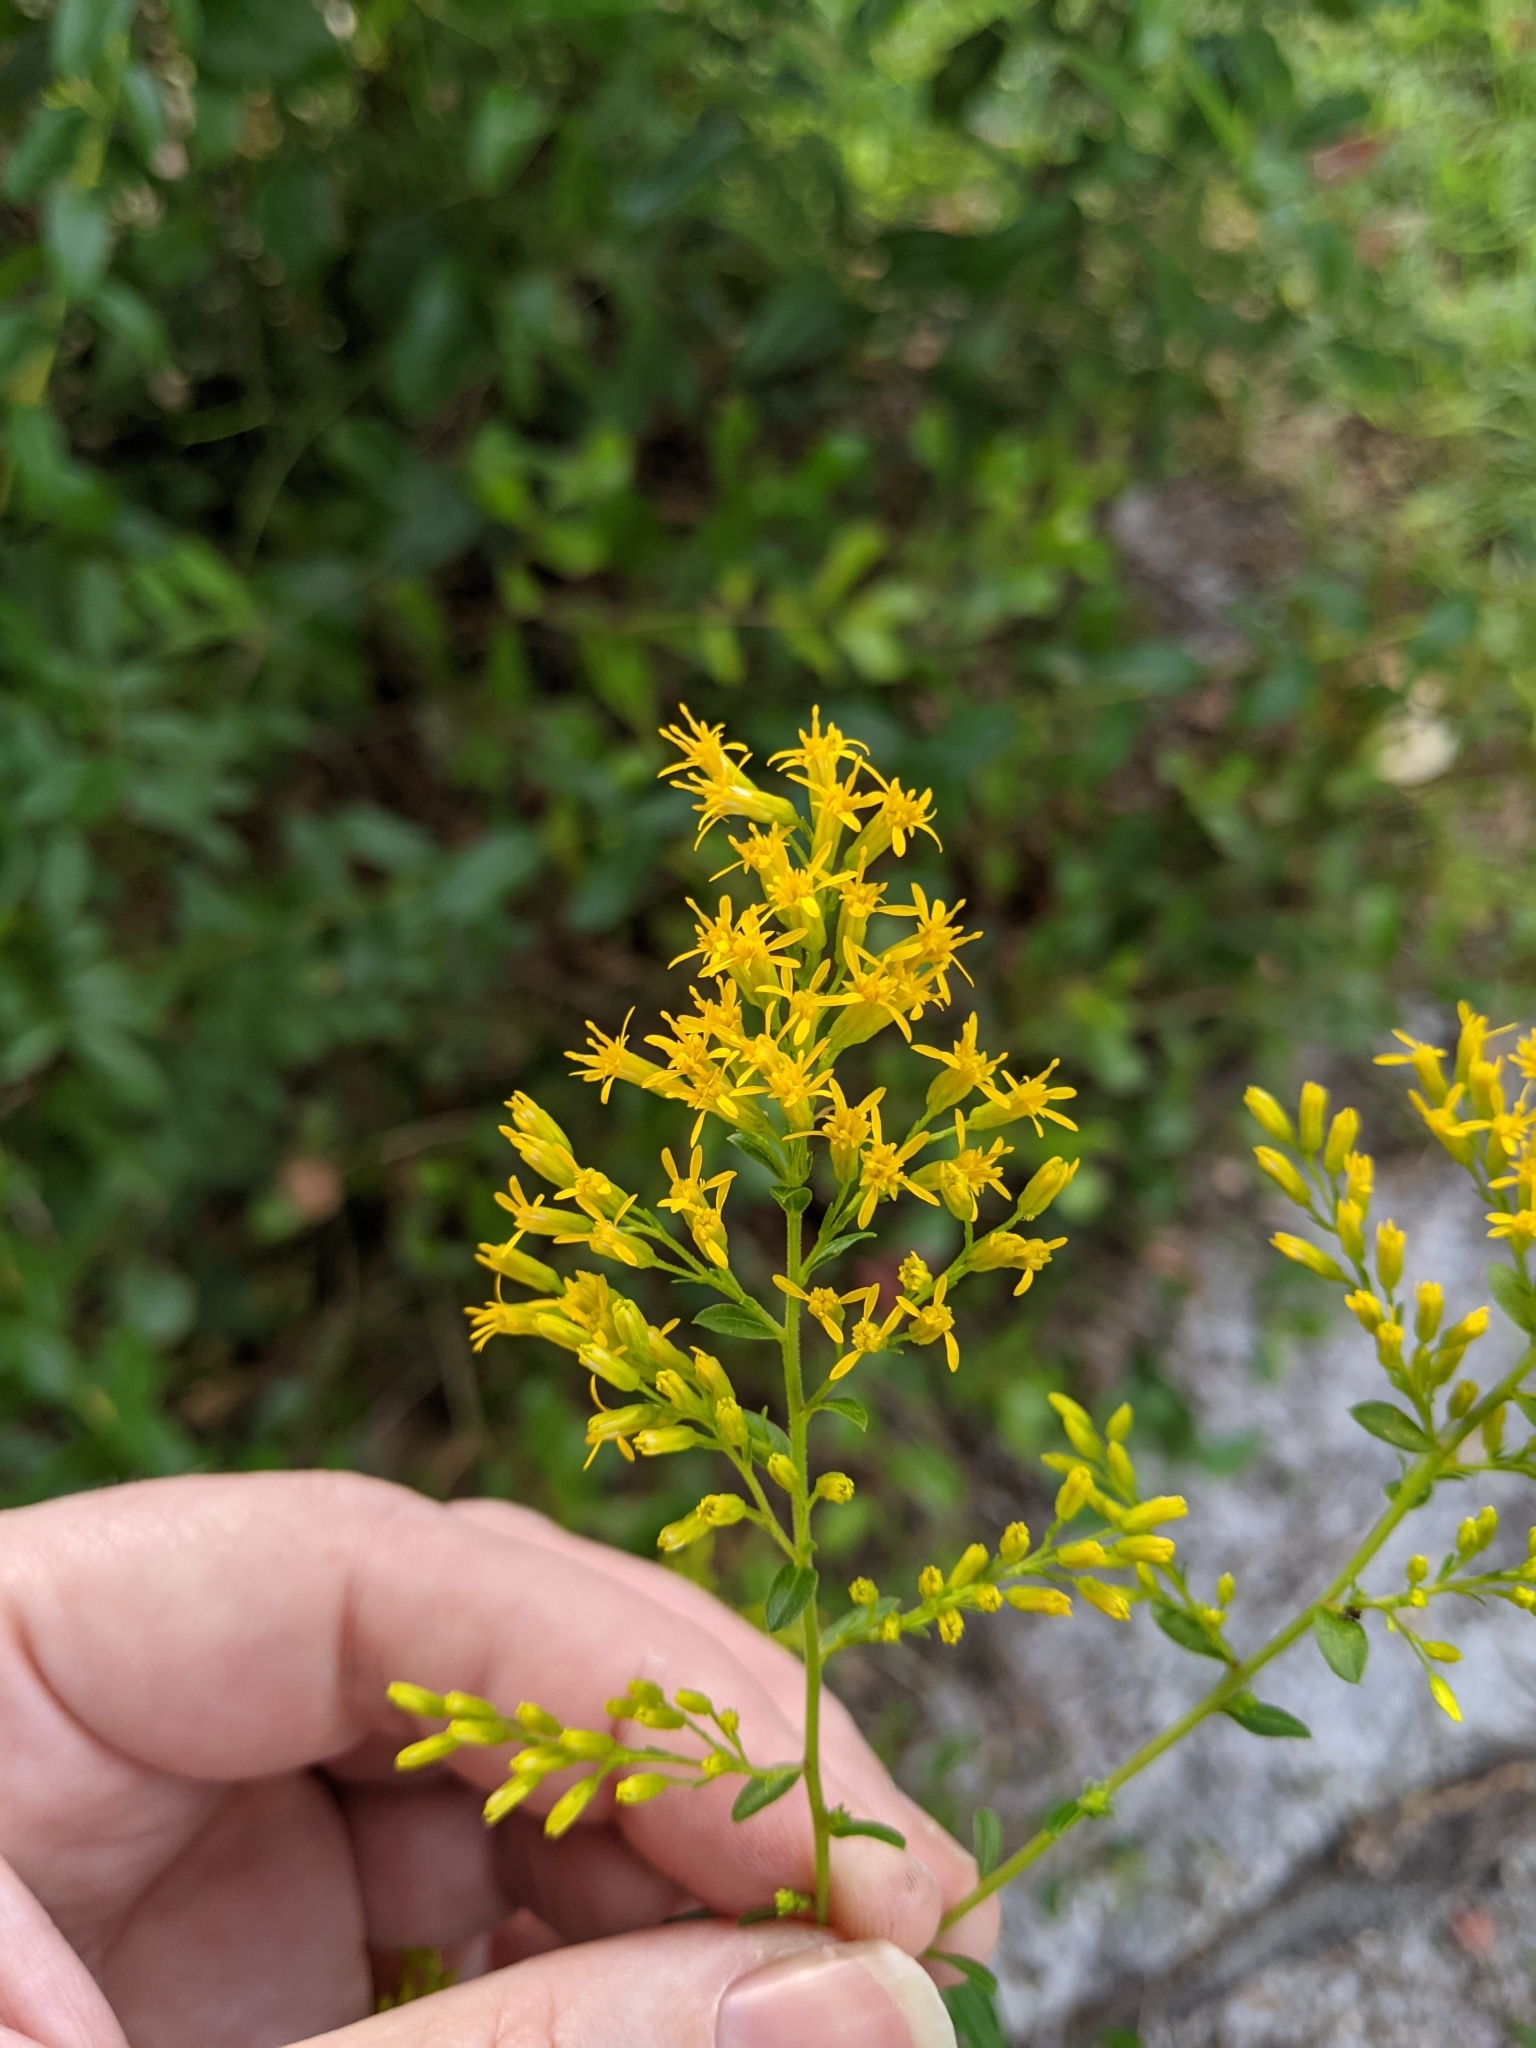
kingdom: Plantae
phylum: Tracheophyta
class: Magnoliopsida
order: Asterales
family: Asteraceae
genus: Solidago
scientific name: Solidago chapmanii
